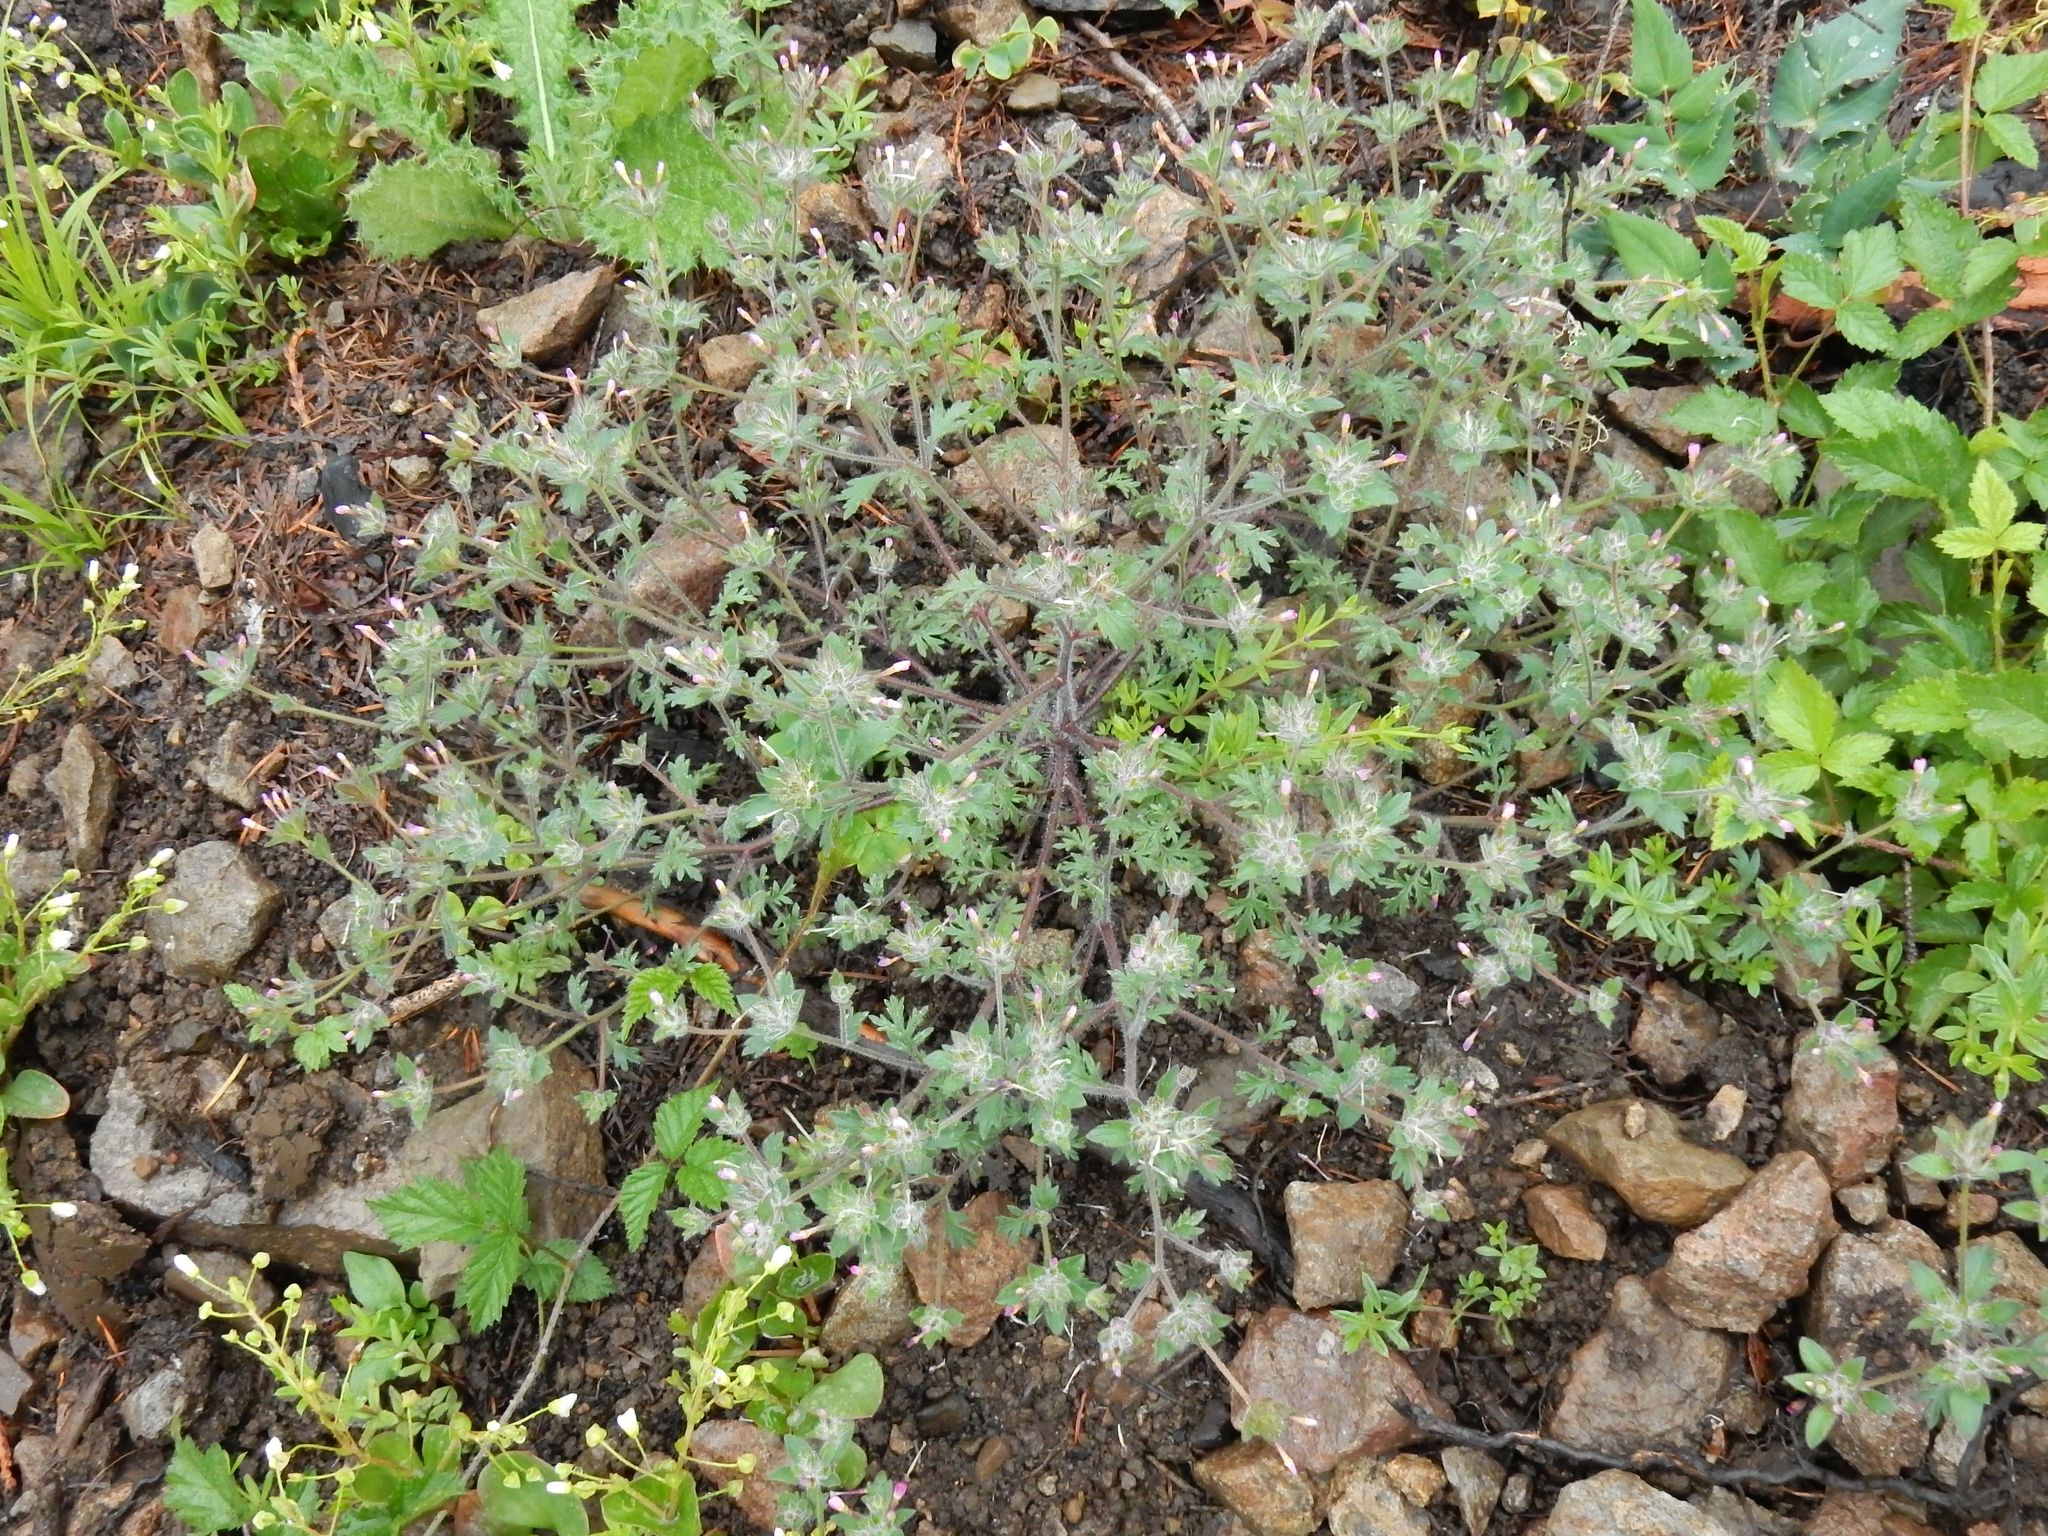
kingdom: Plantae
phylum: Tracheophyta
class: Magnoliopsida
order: Ericales
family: Polemoniaceae
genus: Collomia
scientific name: Collomia heterophylla
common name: Variable-leaved collomia
